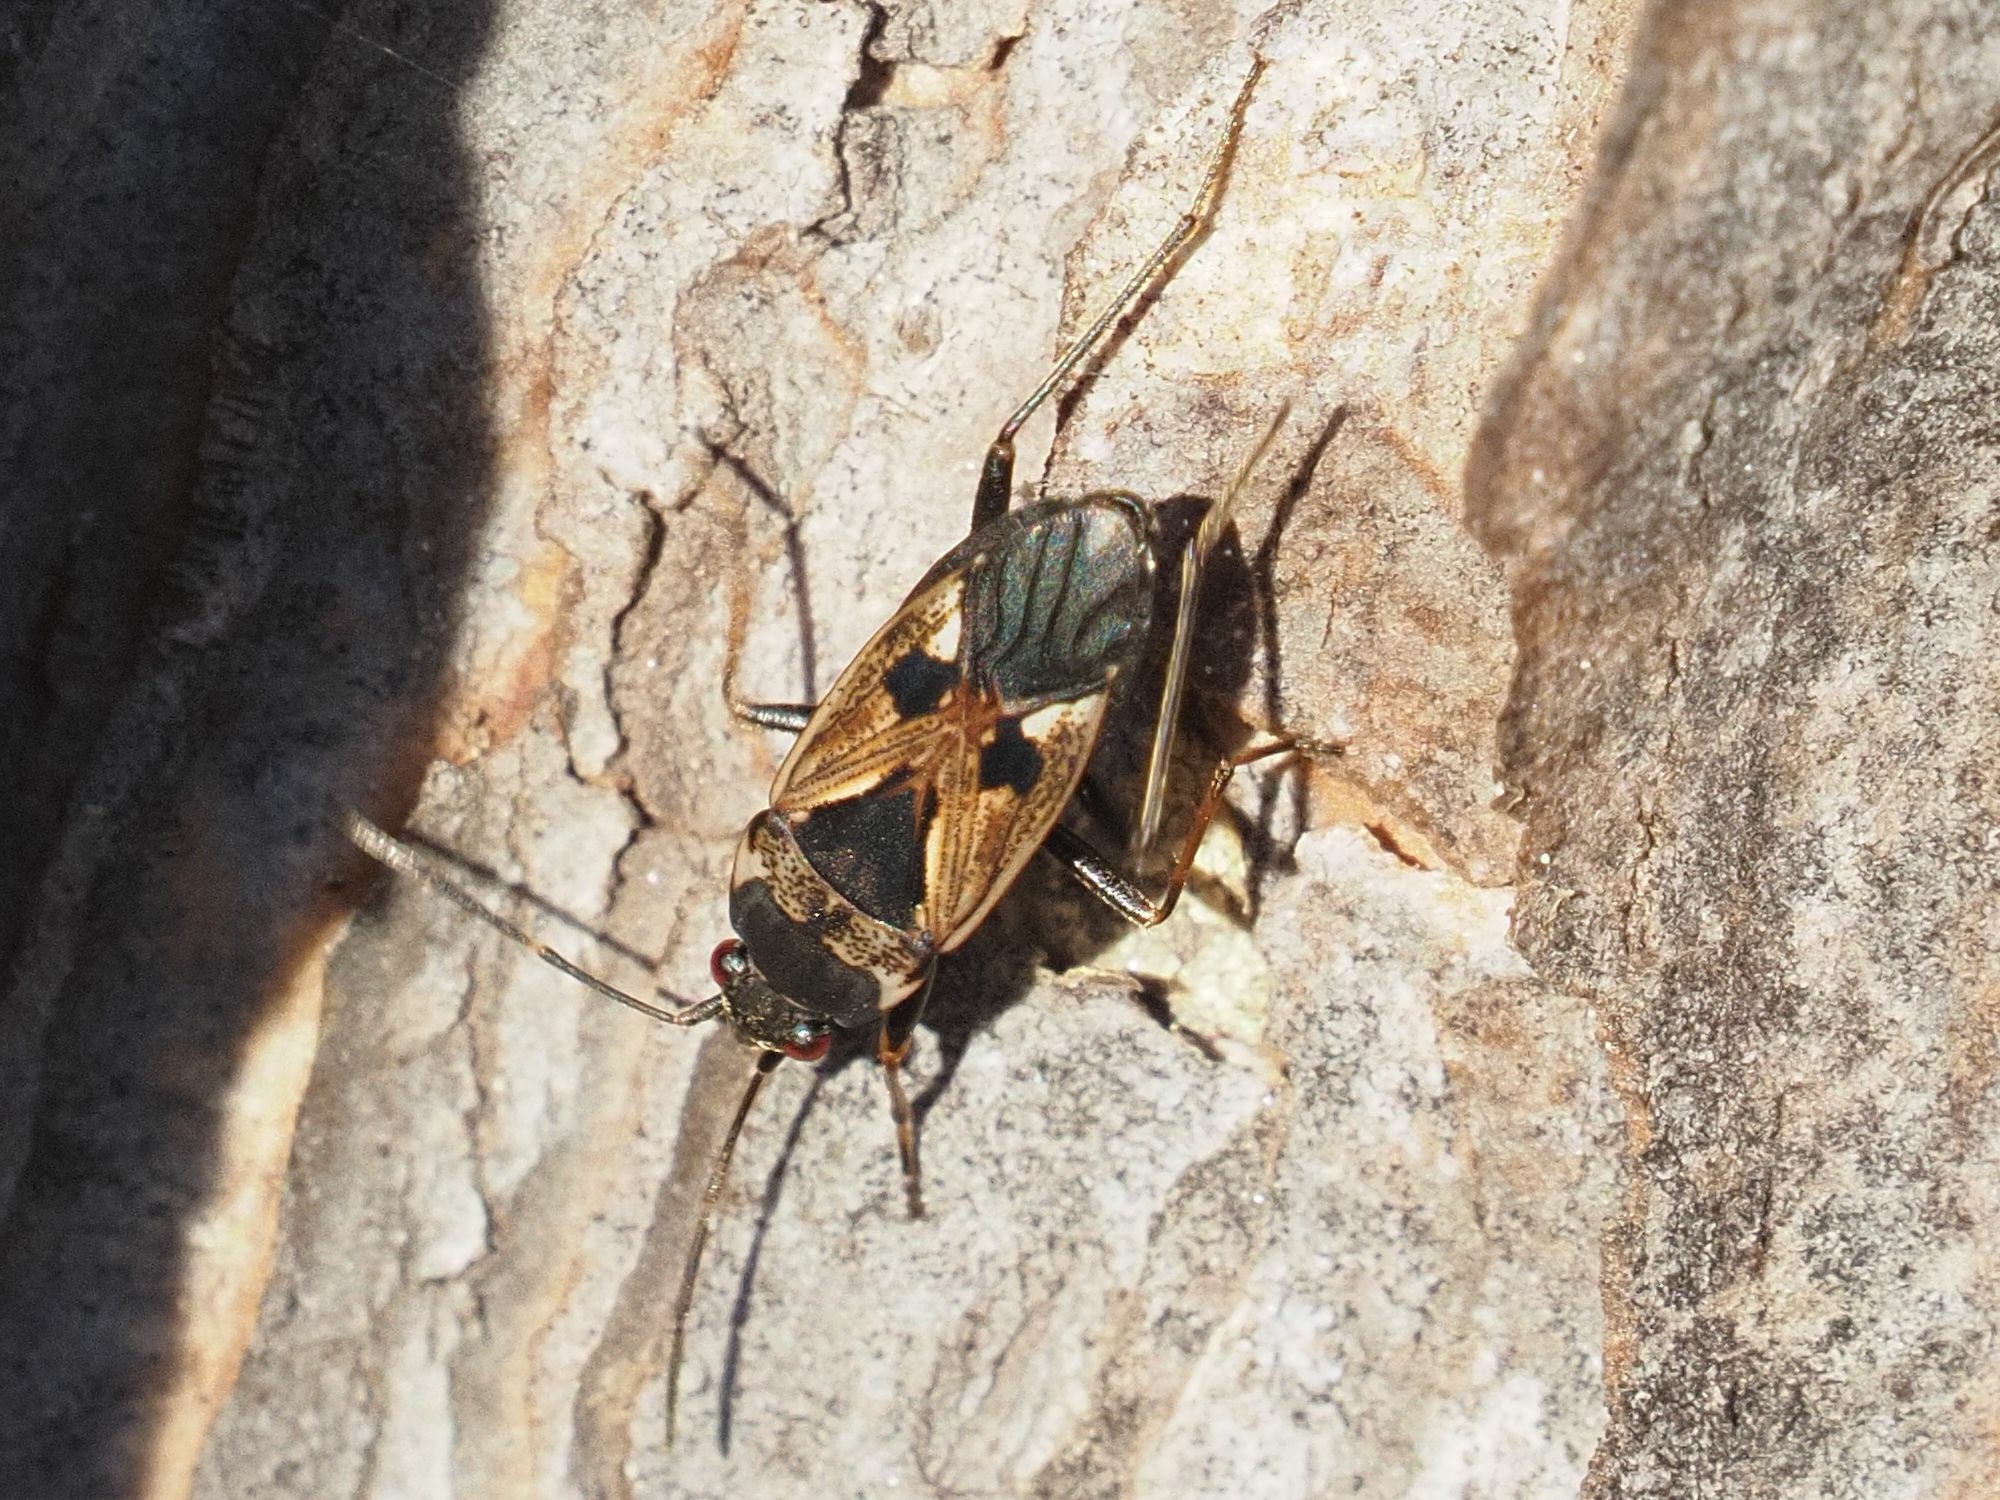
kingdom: Animalia
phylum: Arthropoda
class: Insecta
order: Hemiptera
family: Rhyparochromidae
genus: Rhyparochromus
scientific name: Rhyparochromus vulgaris
